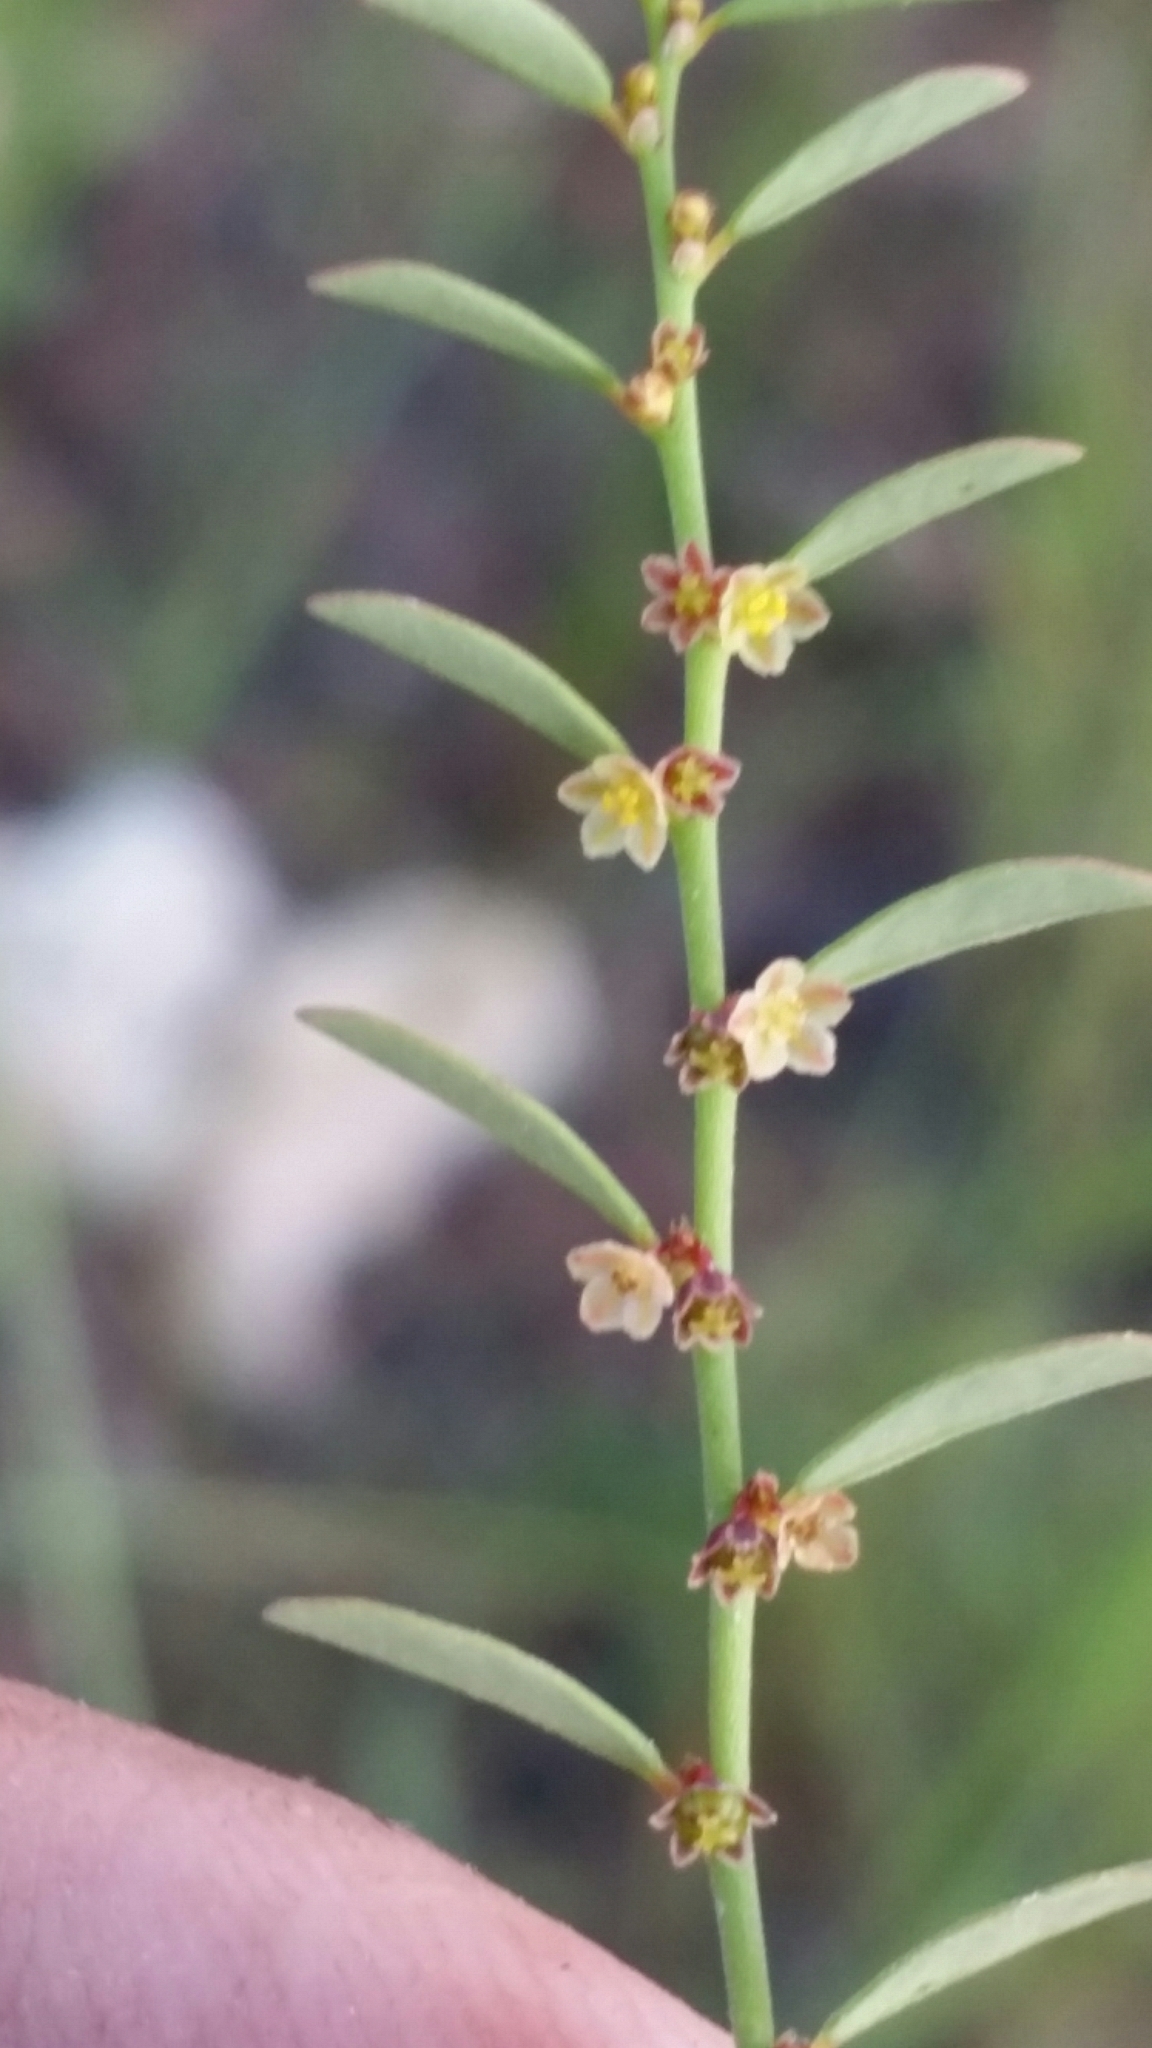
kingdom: Plantae
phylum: Tracheophyta
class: Magnoliopsida
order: Malpighiales
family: Phyllanthaceae
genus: Phyllanthus
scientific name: Phyllanthus caroliniensis
